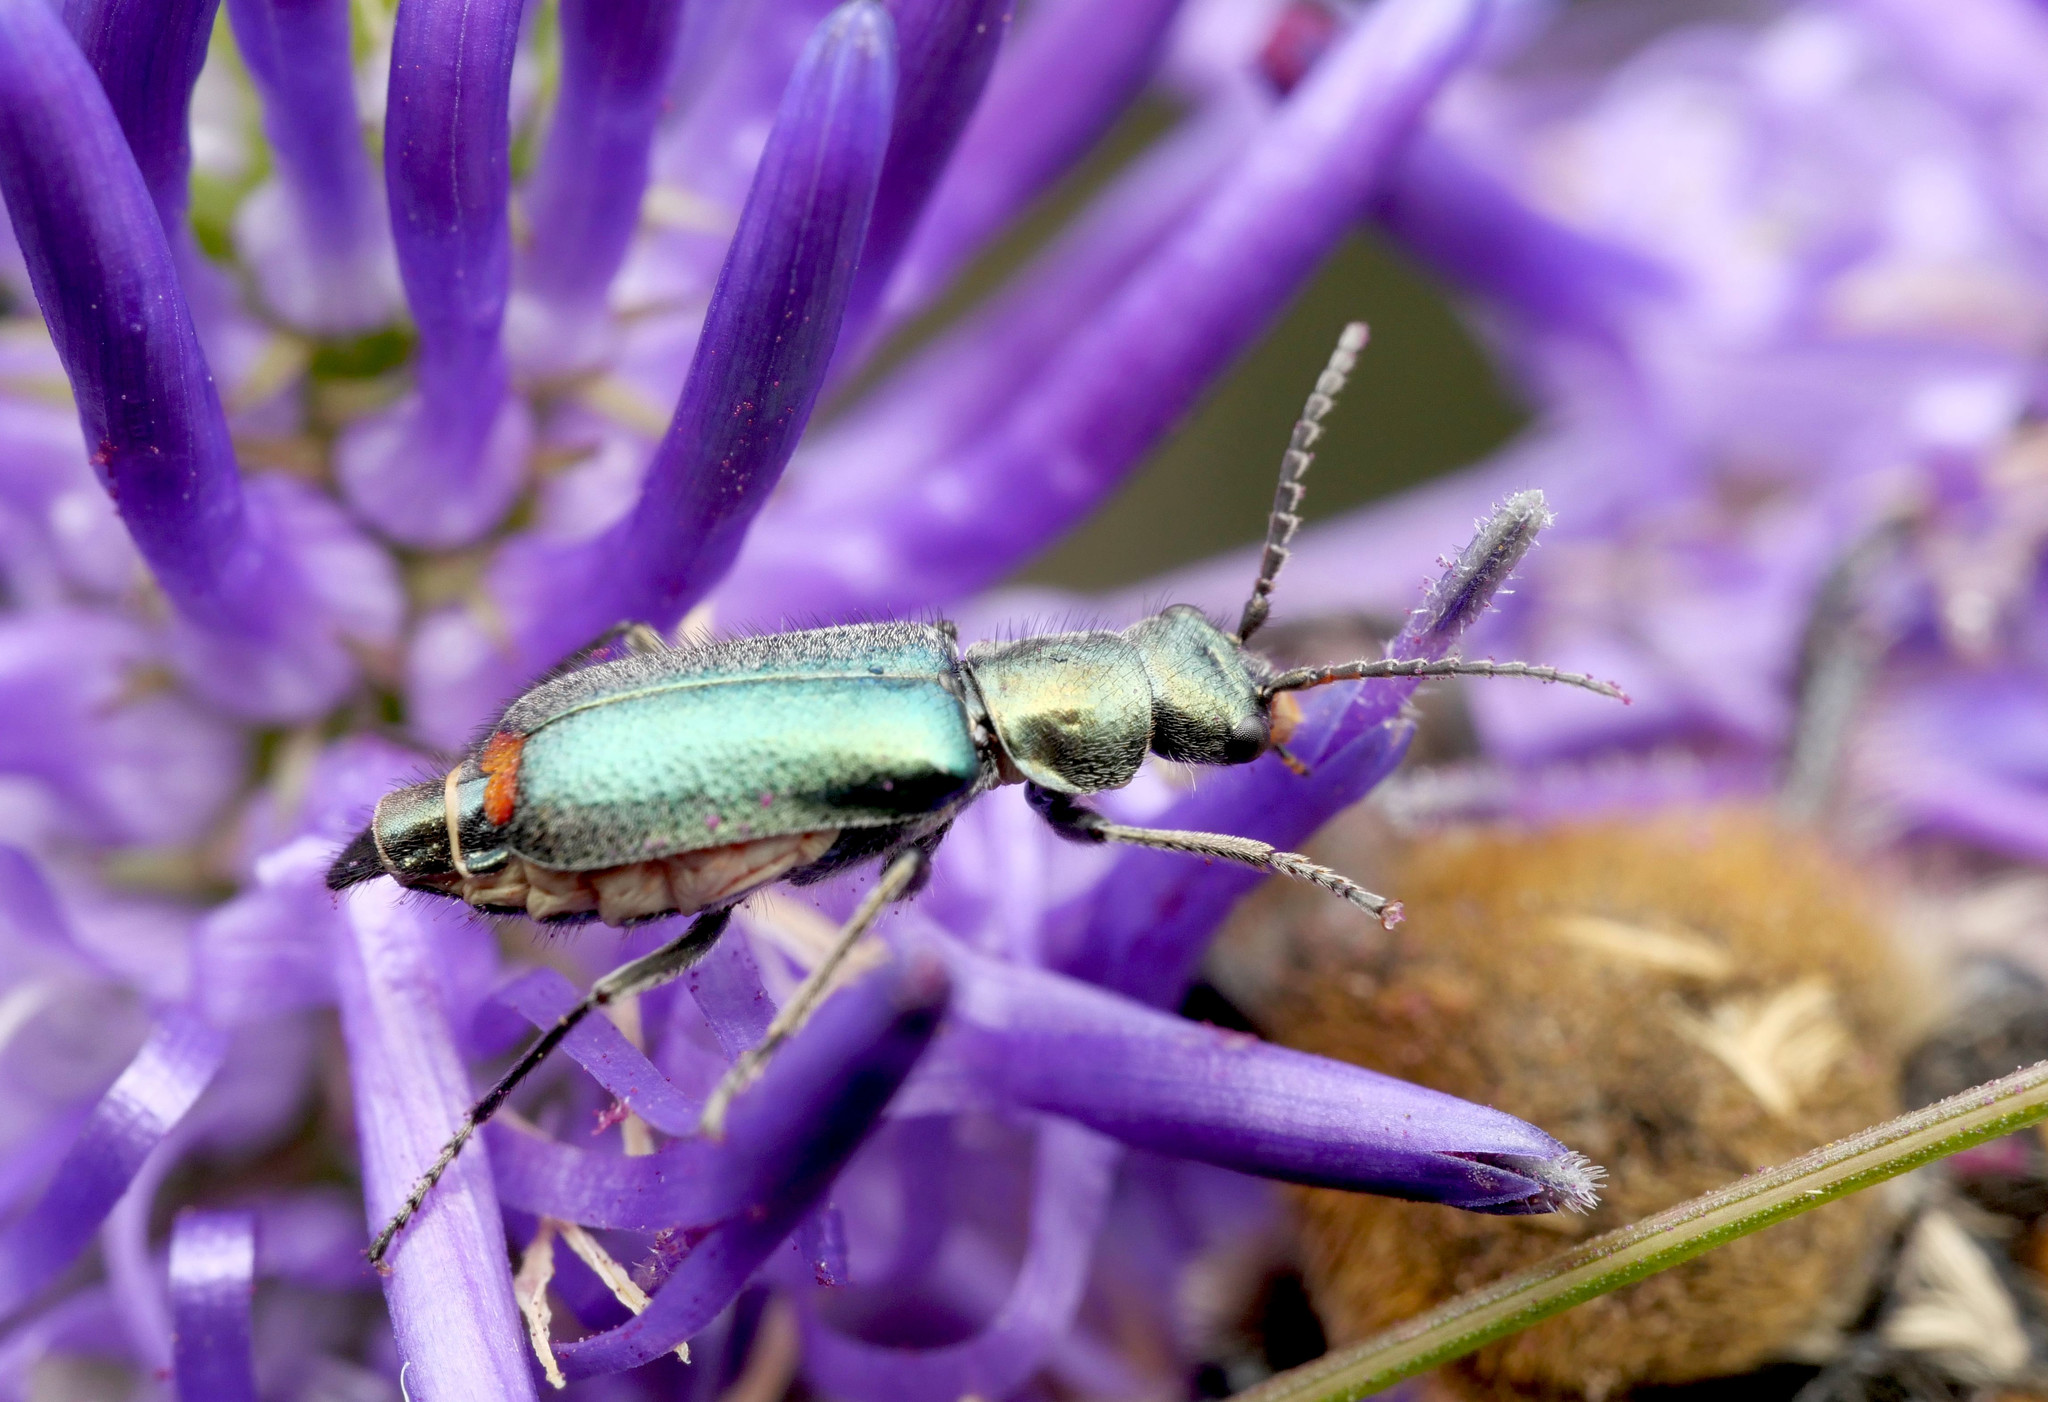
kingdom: Animalia
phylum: Arthropoda
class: Insecta
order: Coleoptera
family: Malachiidae
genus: Cordylepherus
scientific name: Cordylepherus viridis
